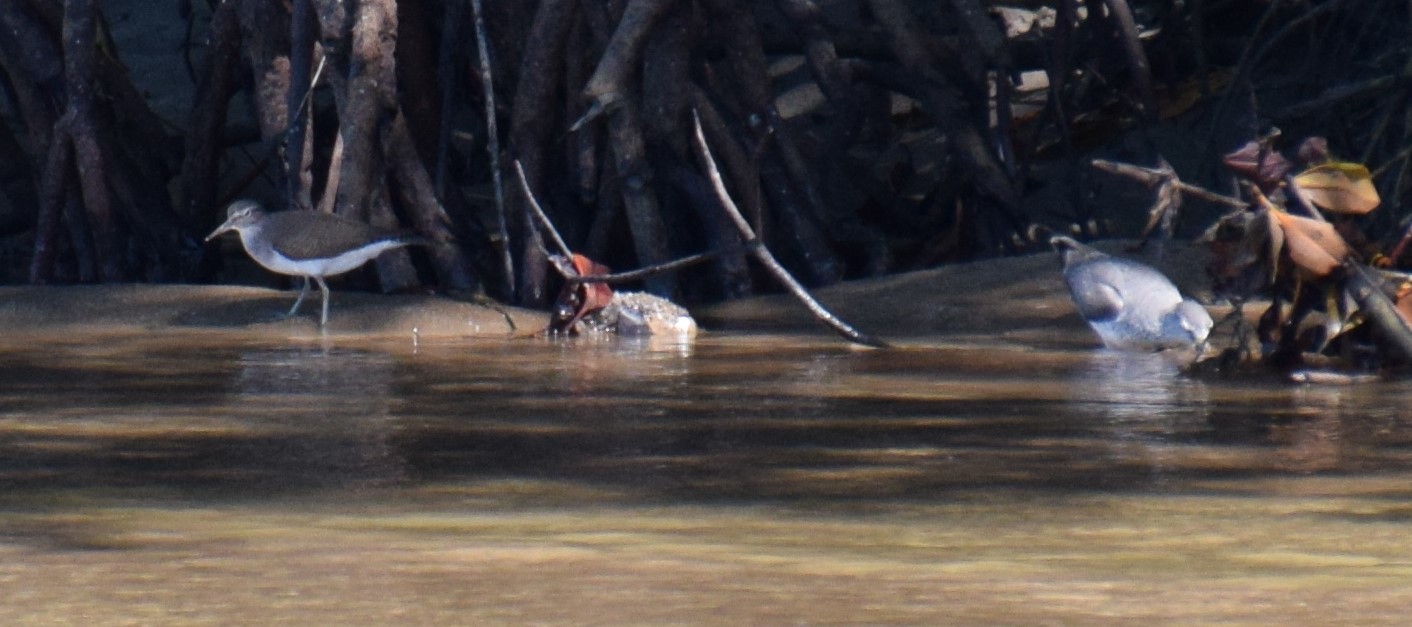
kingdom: Animalia
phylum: Chordata
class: Aves
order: Charadriiformes
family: Scolopacidae
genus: Tringa
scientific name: Tringa brevipes
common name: Grey-tailed tattler
